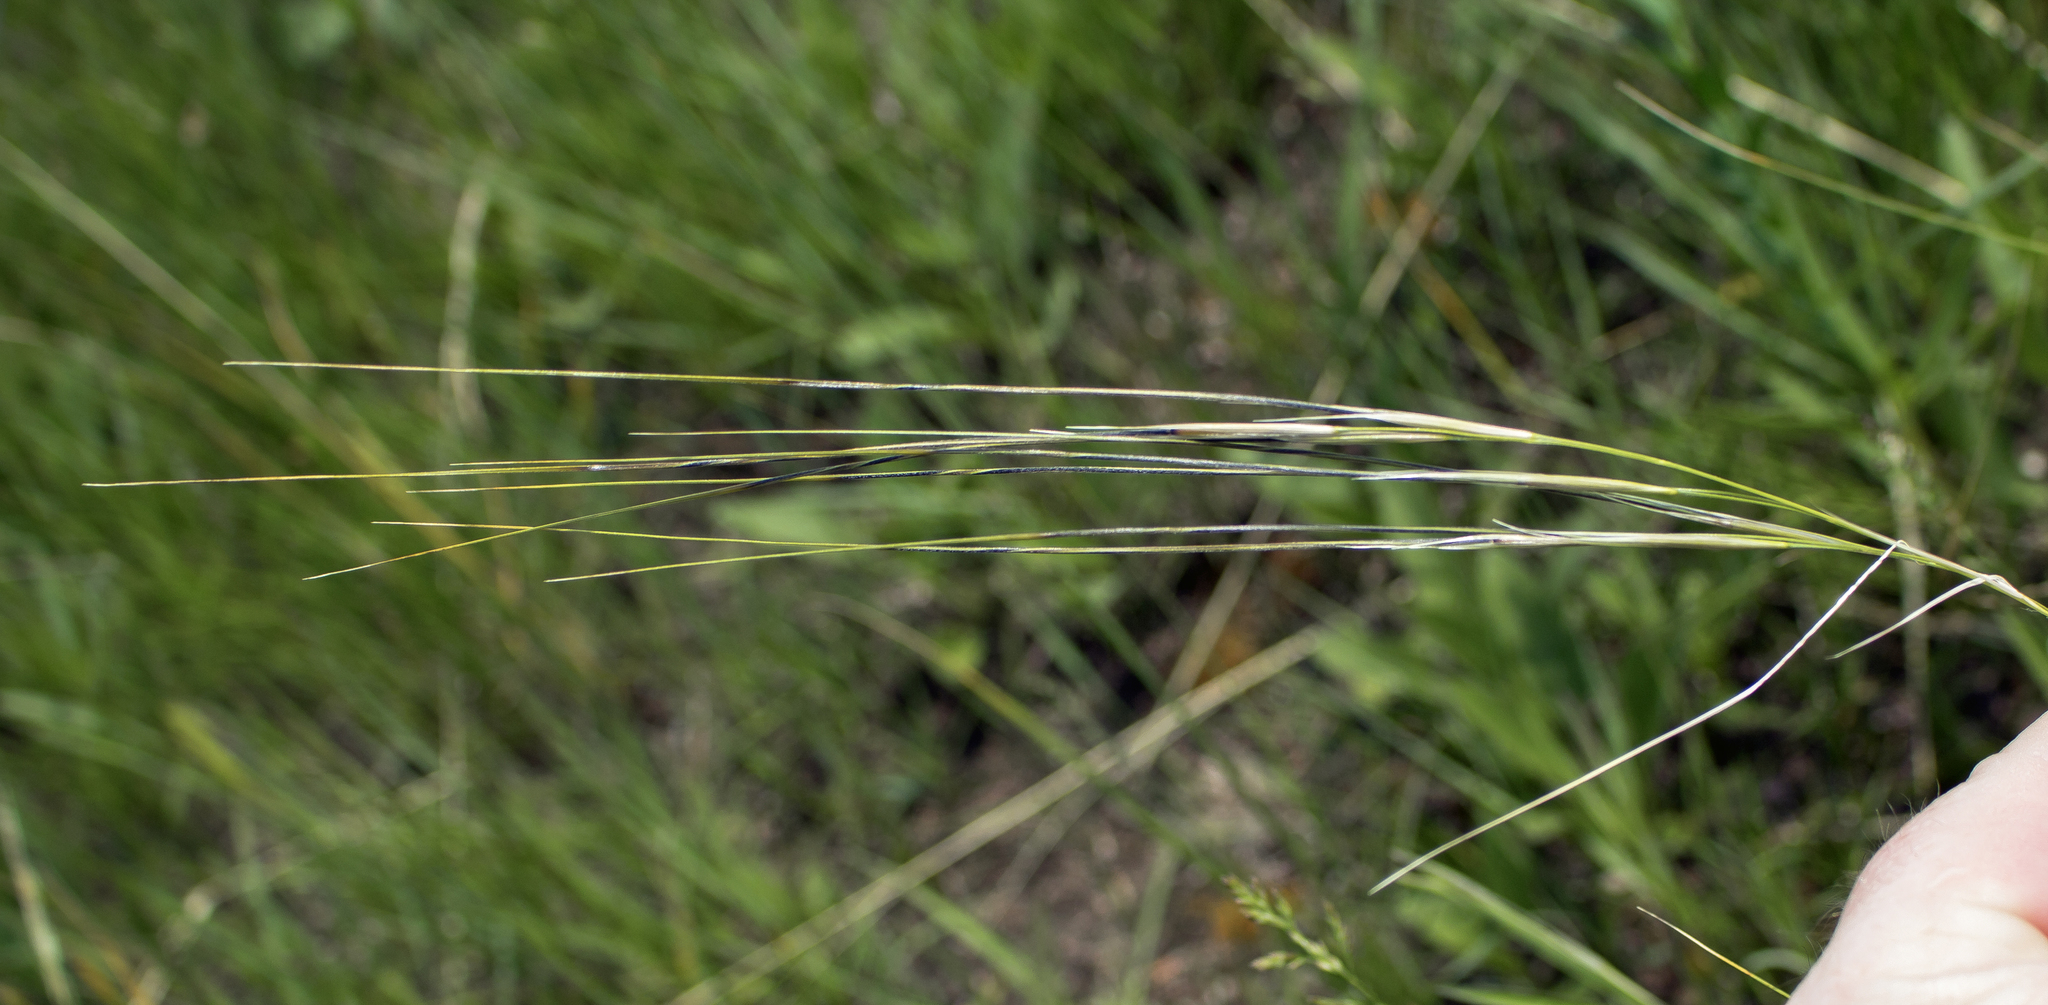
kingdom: Plantae
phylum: Tracheophyta
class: Liliopsida
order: Poales
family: Poaceae
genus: Hesperostipa
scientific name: Hesperostipa spartea
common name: Porcupine grass
